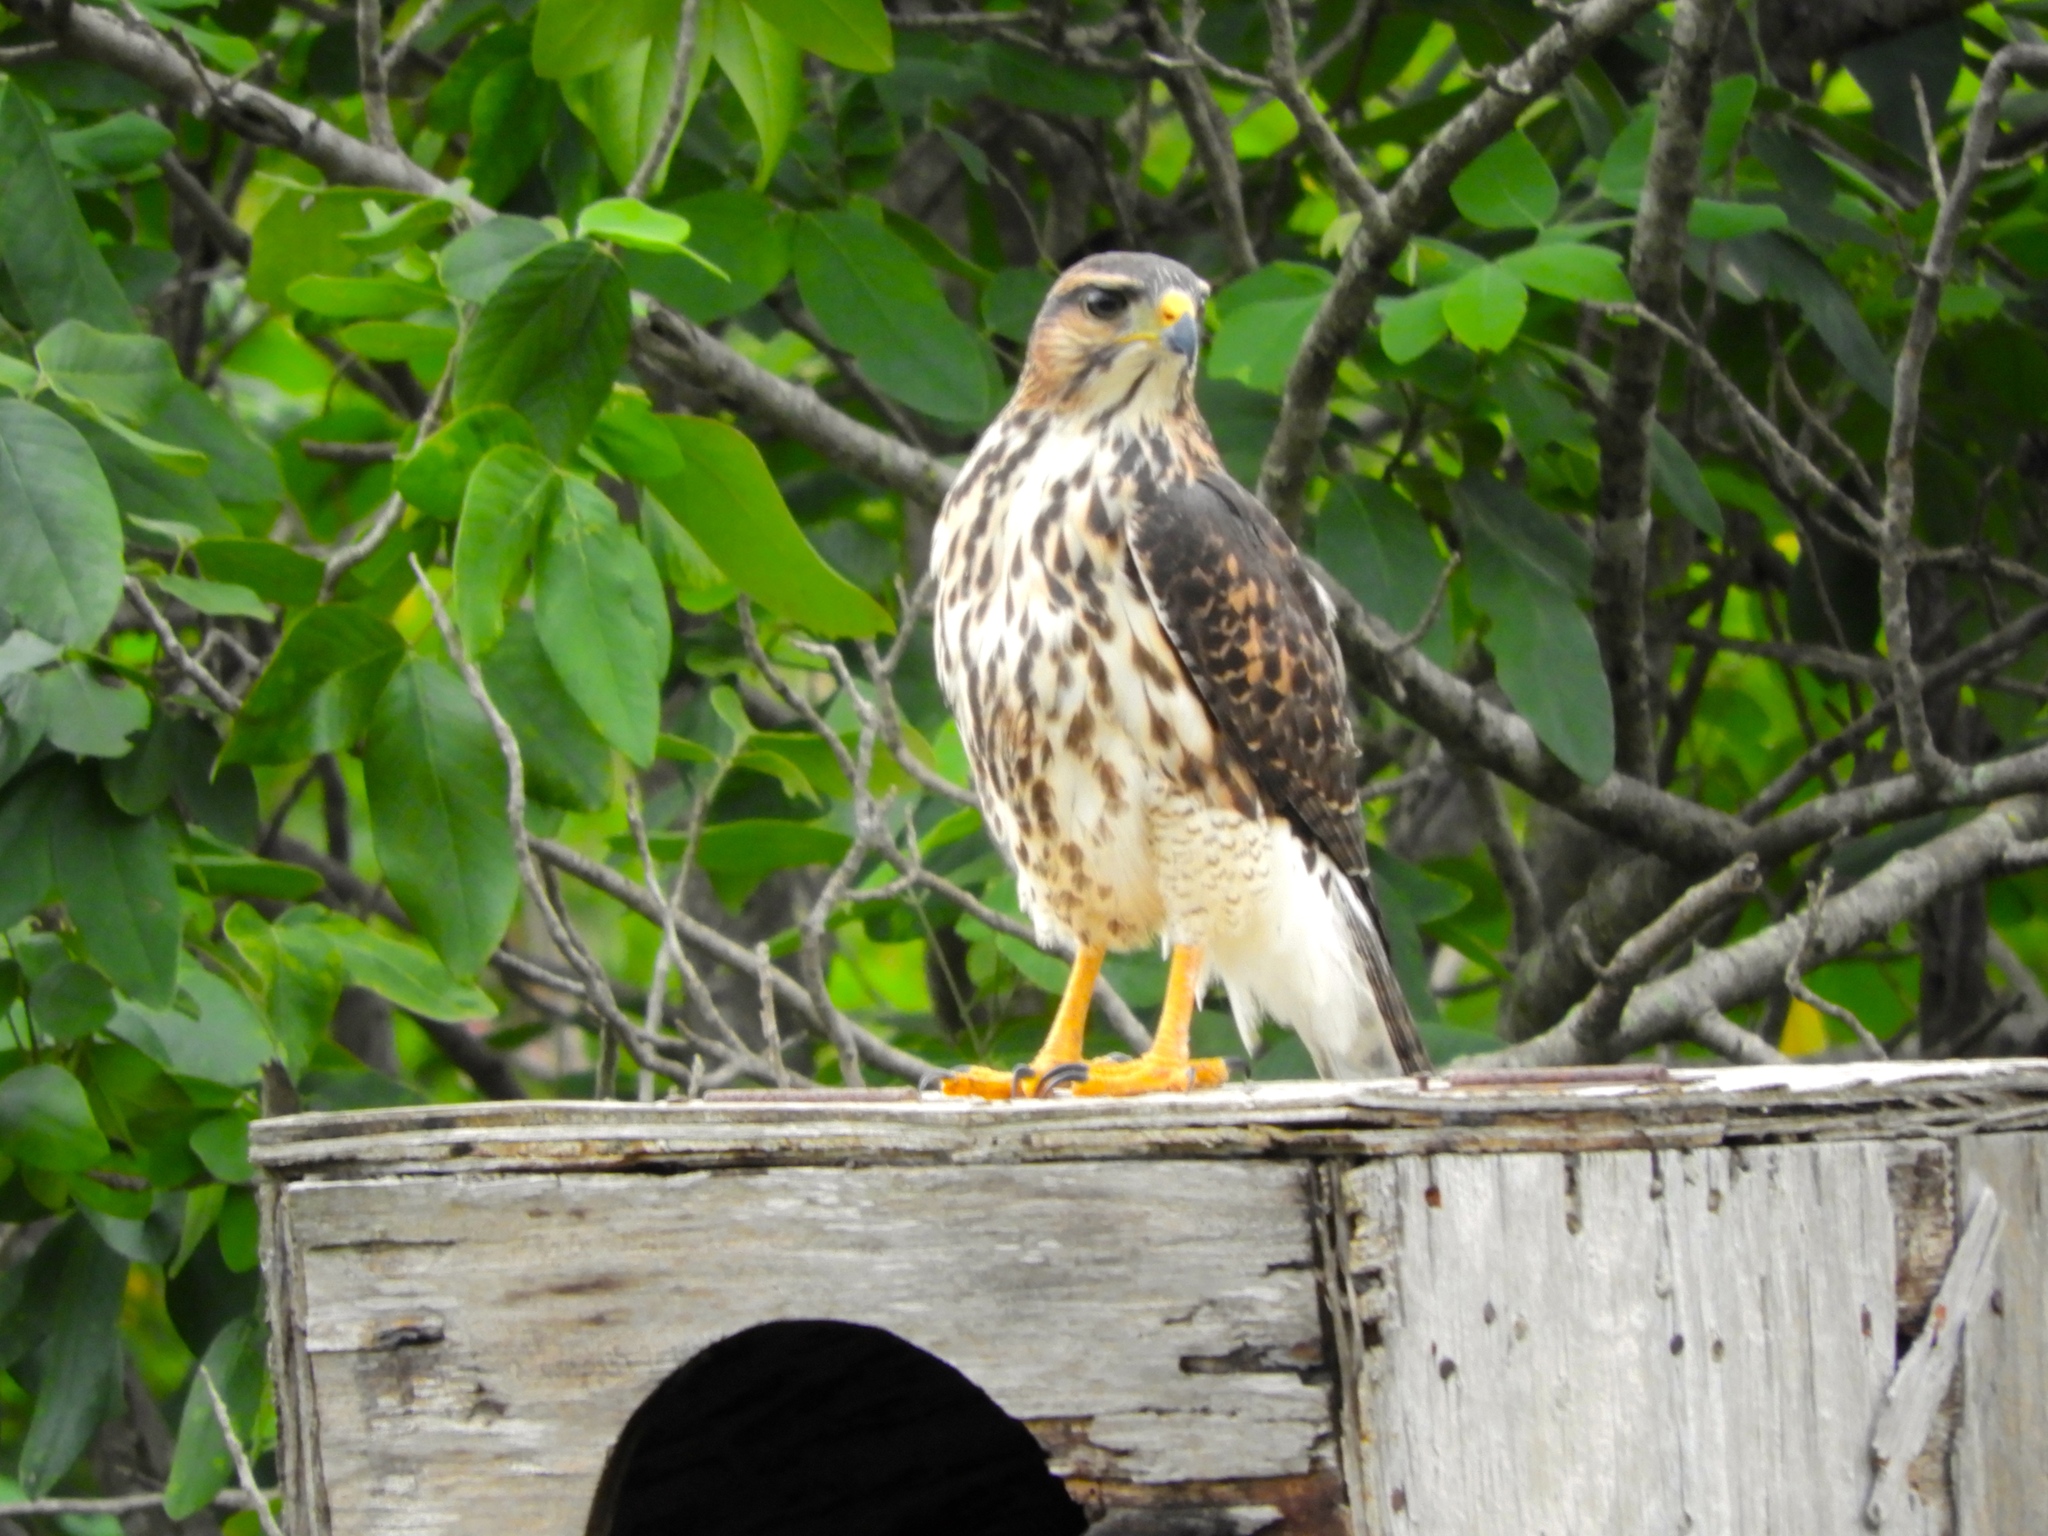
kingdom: Animalia
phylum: Chordata
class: Aves
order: Accipitriformes
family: Accipitridae
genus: Buteo
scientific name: Buteo nitidus
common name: Grey-lined hawk
